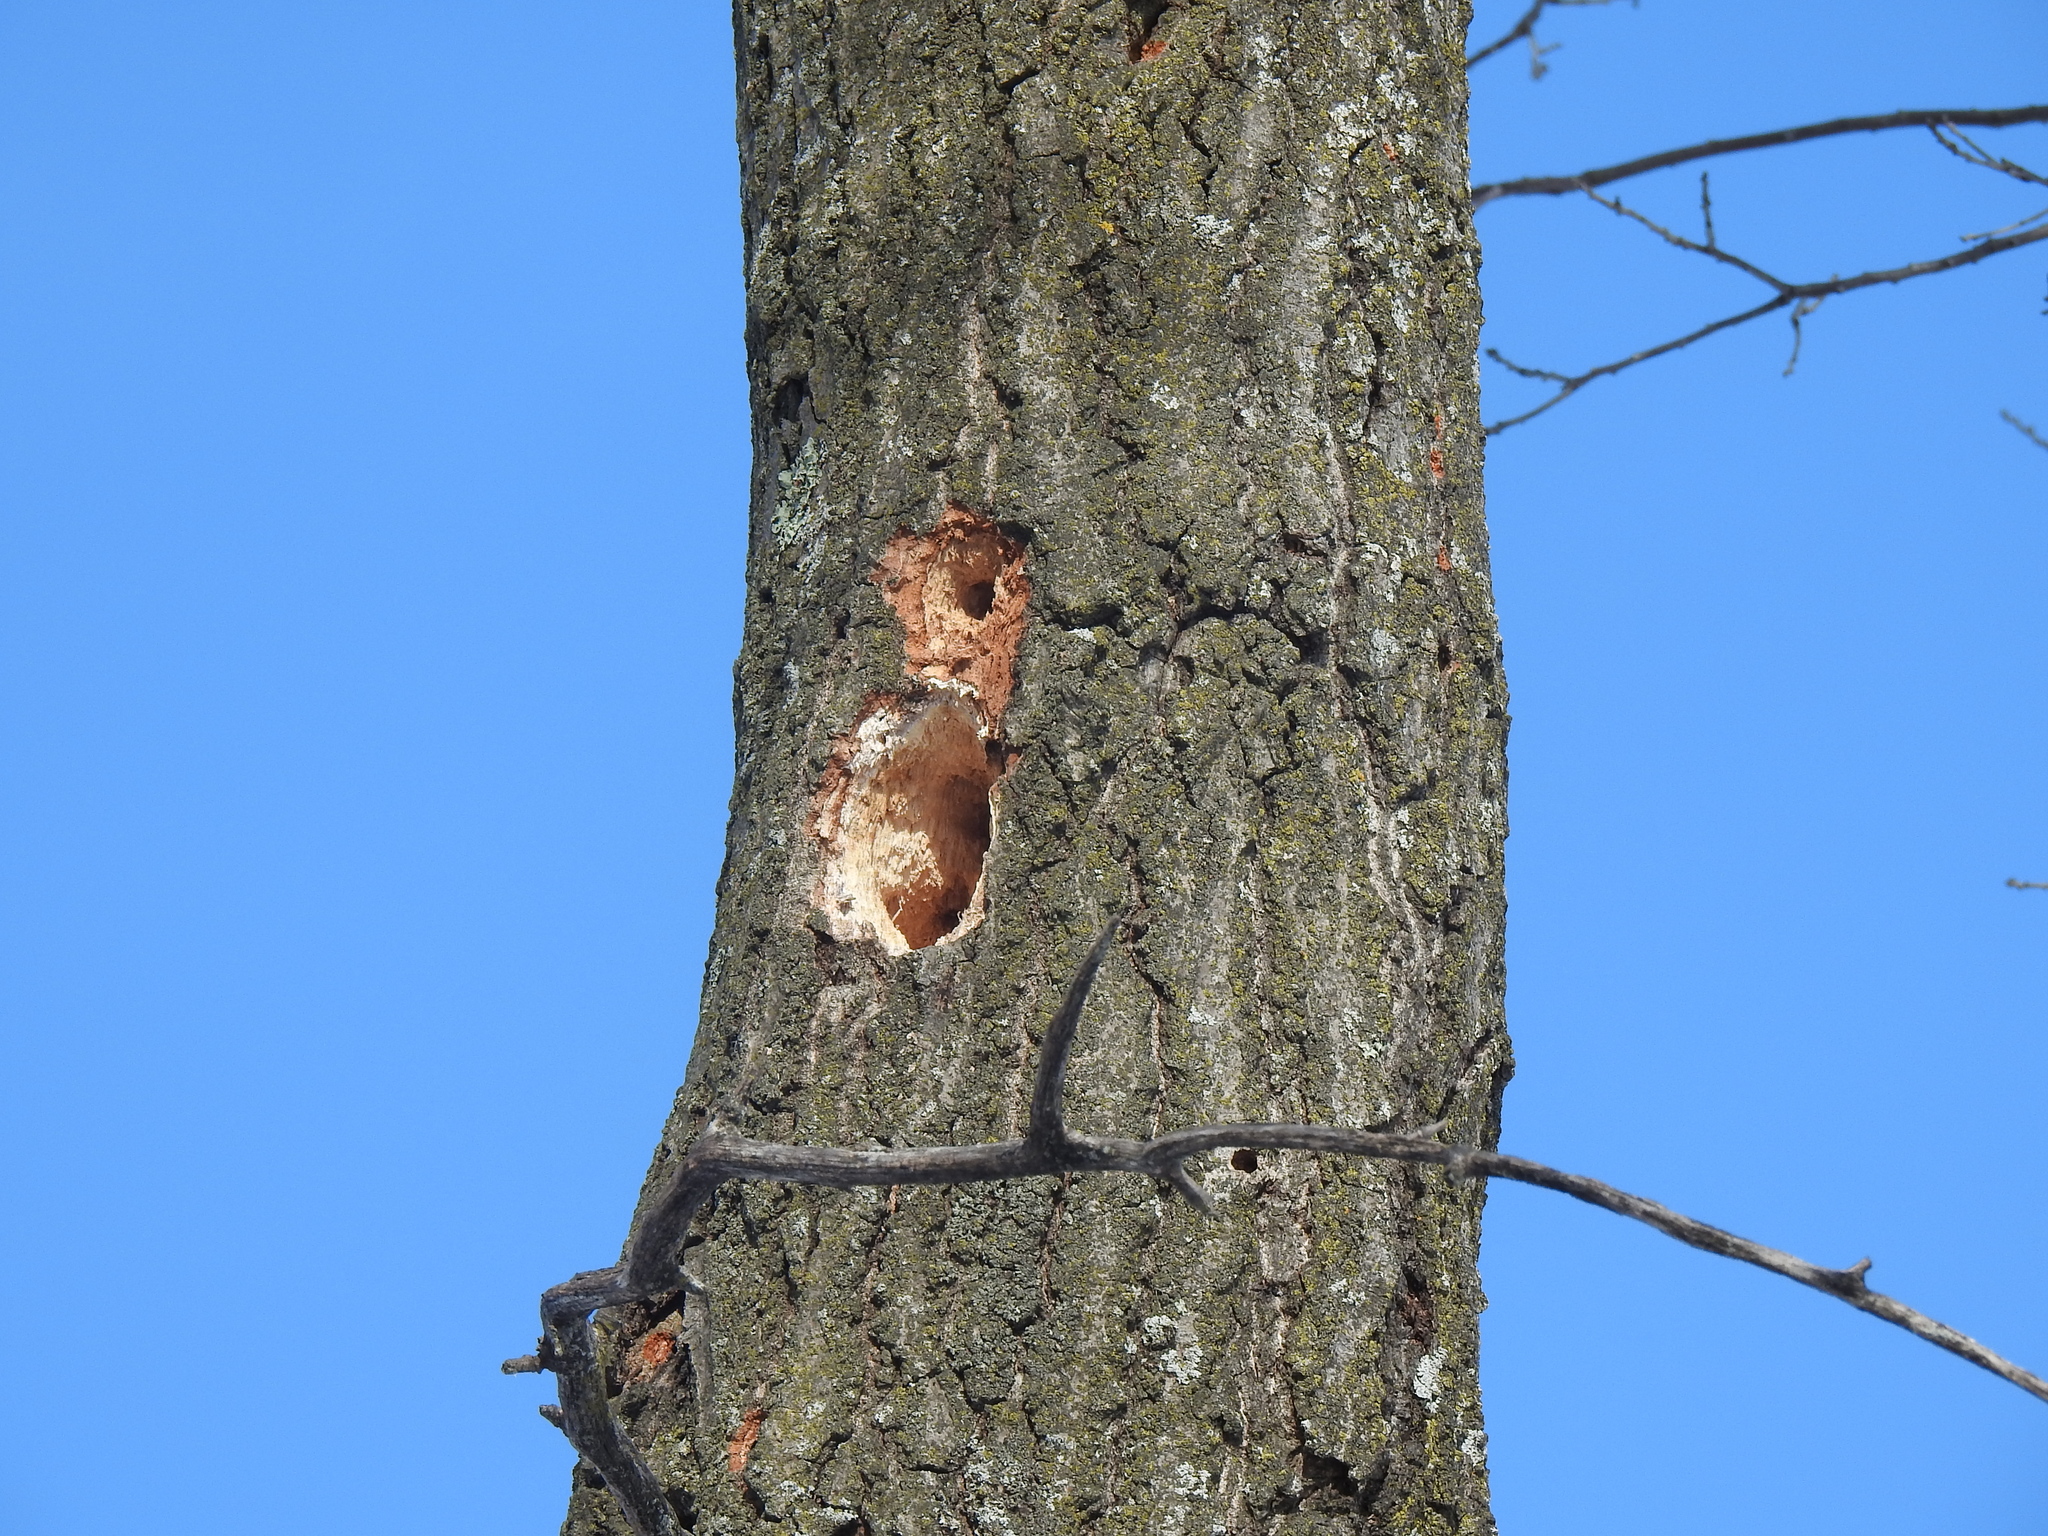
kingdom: Animalia
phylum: Chordata
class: Aves
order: Piciformes
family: Picidae
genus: Melanerpes
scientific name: Melanerpes erythrocephalus
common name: Red-headed woodpecker
